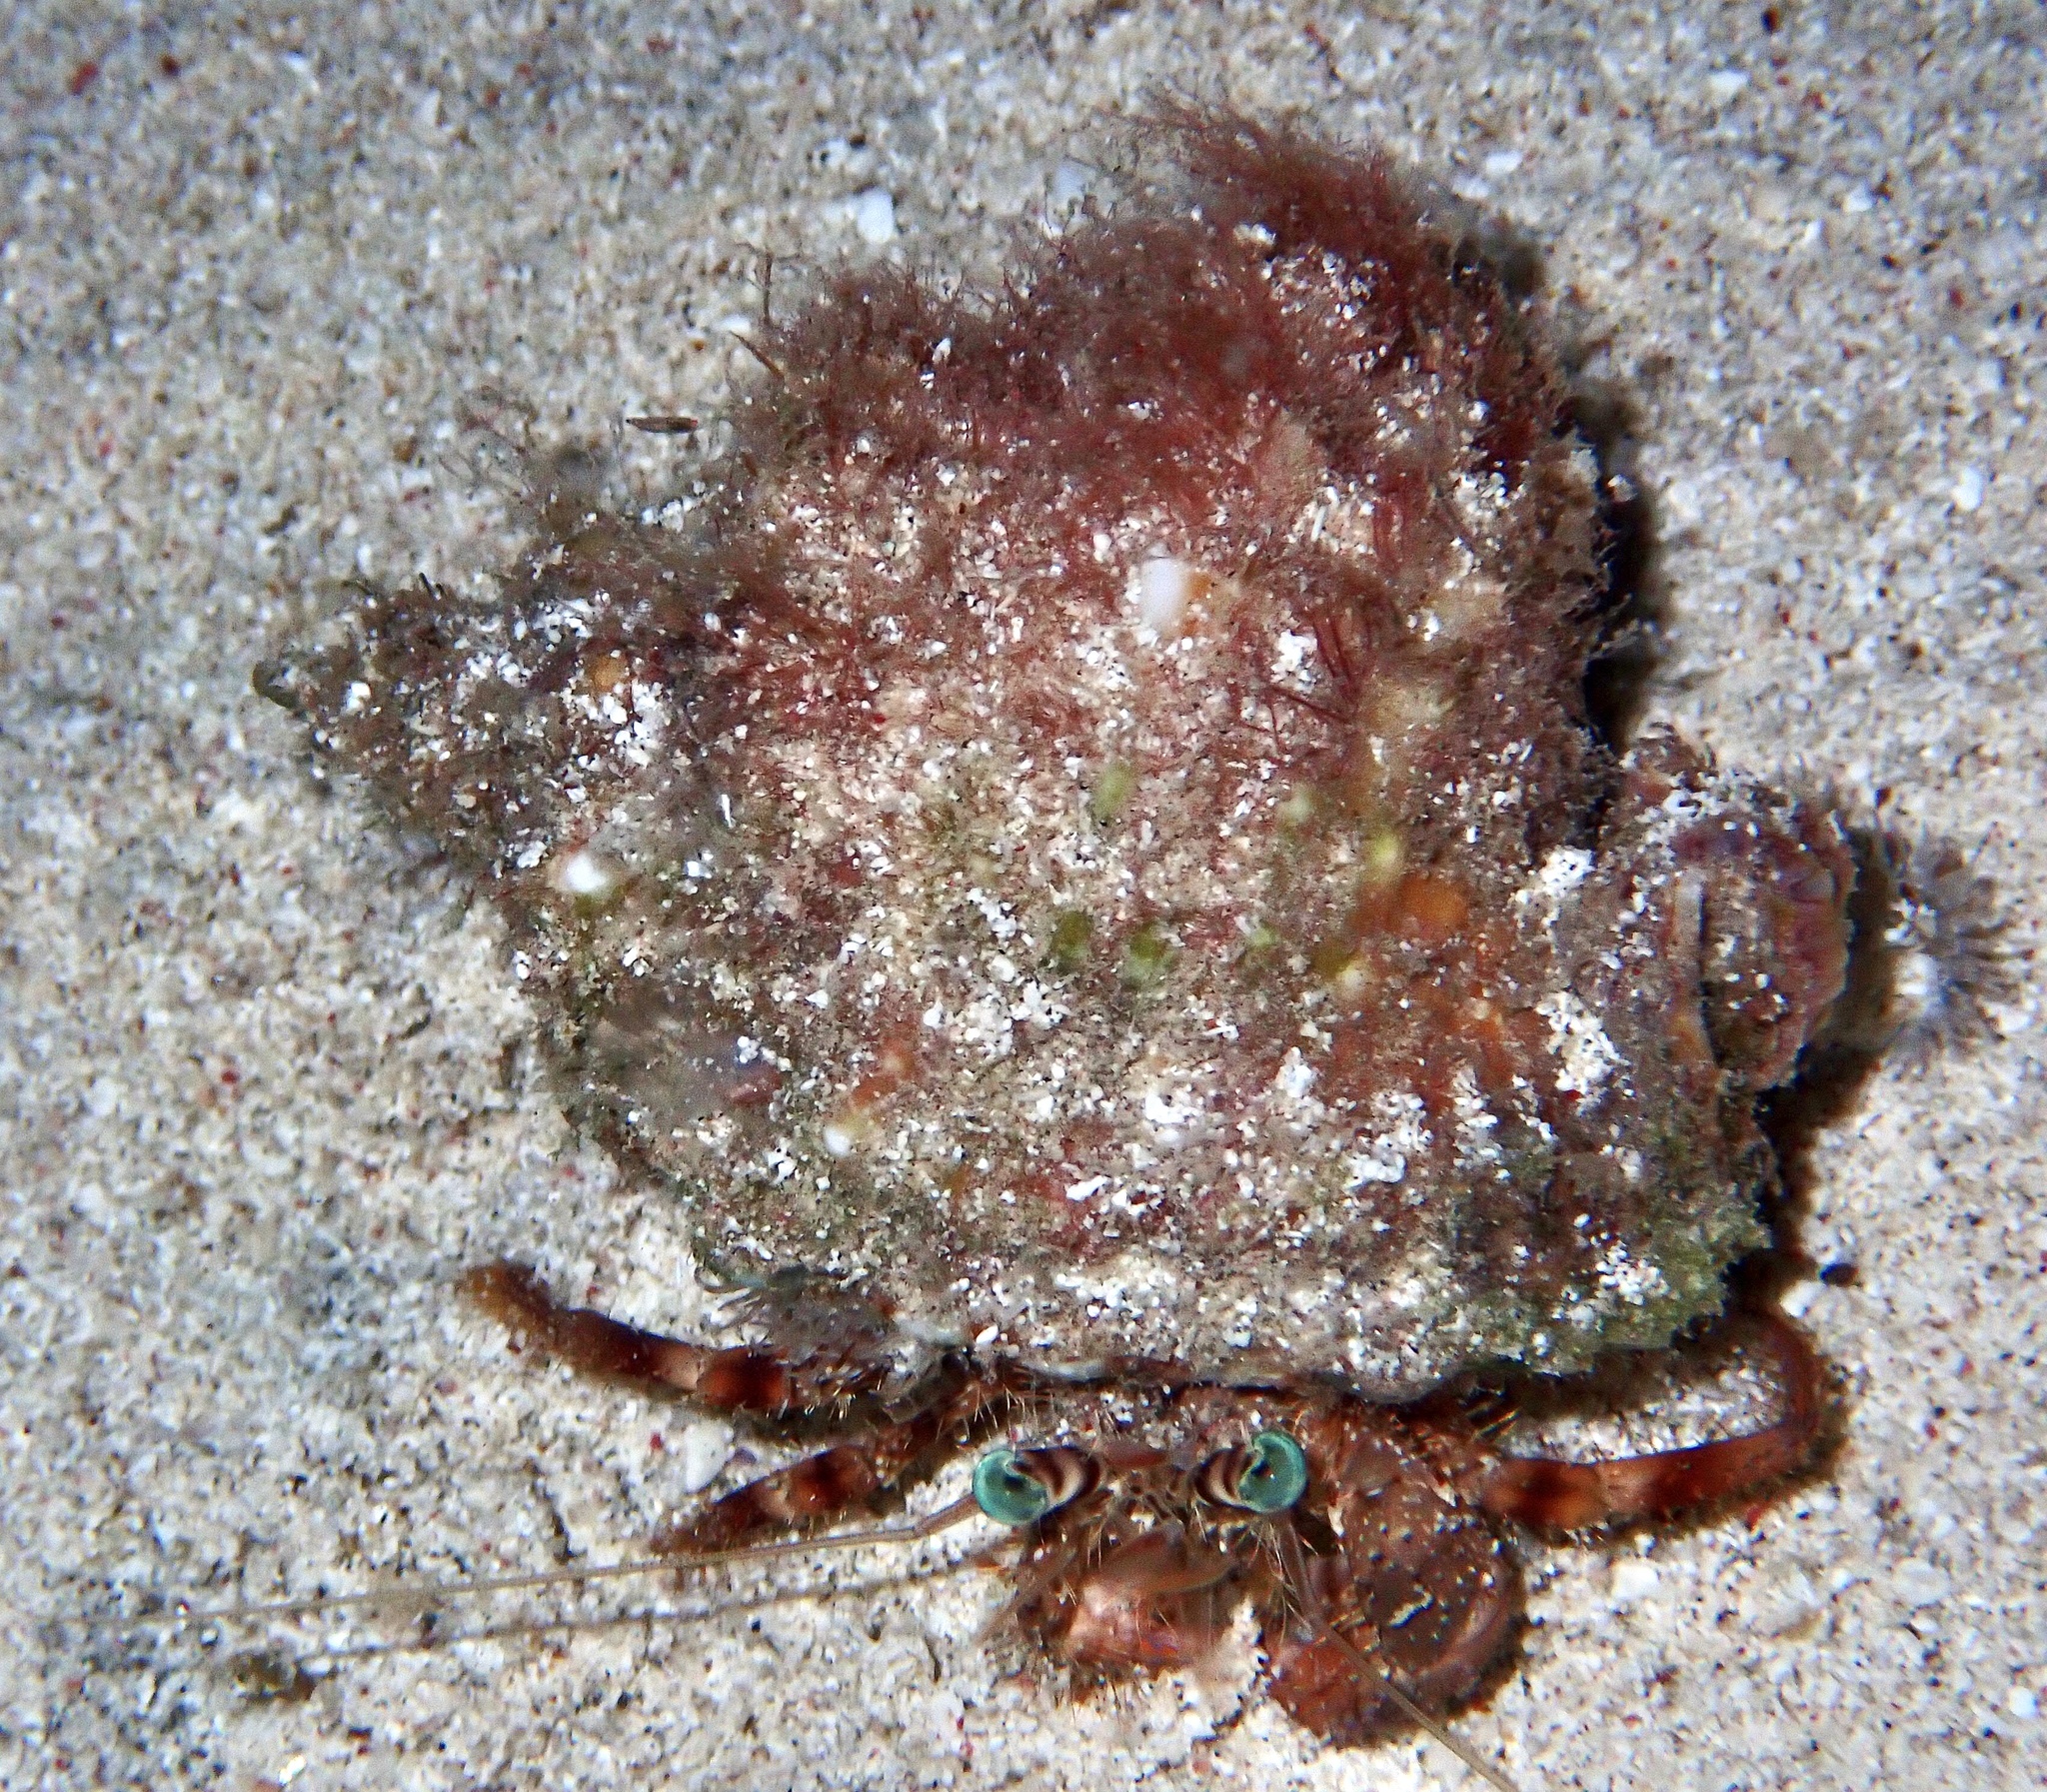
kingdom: Animalia
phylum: Arthropoda
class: Malacostraca
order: Decapoda
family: Diogenidae
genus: Dardanus
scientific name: Dardanus tinctor
